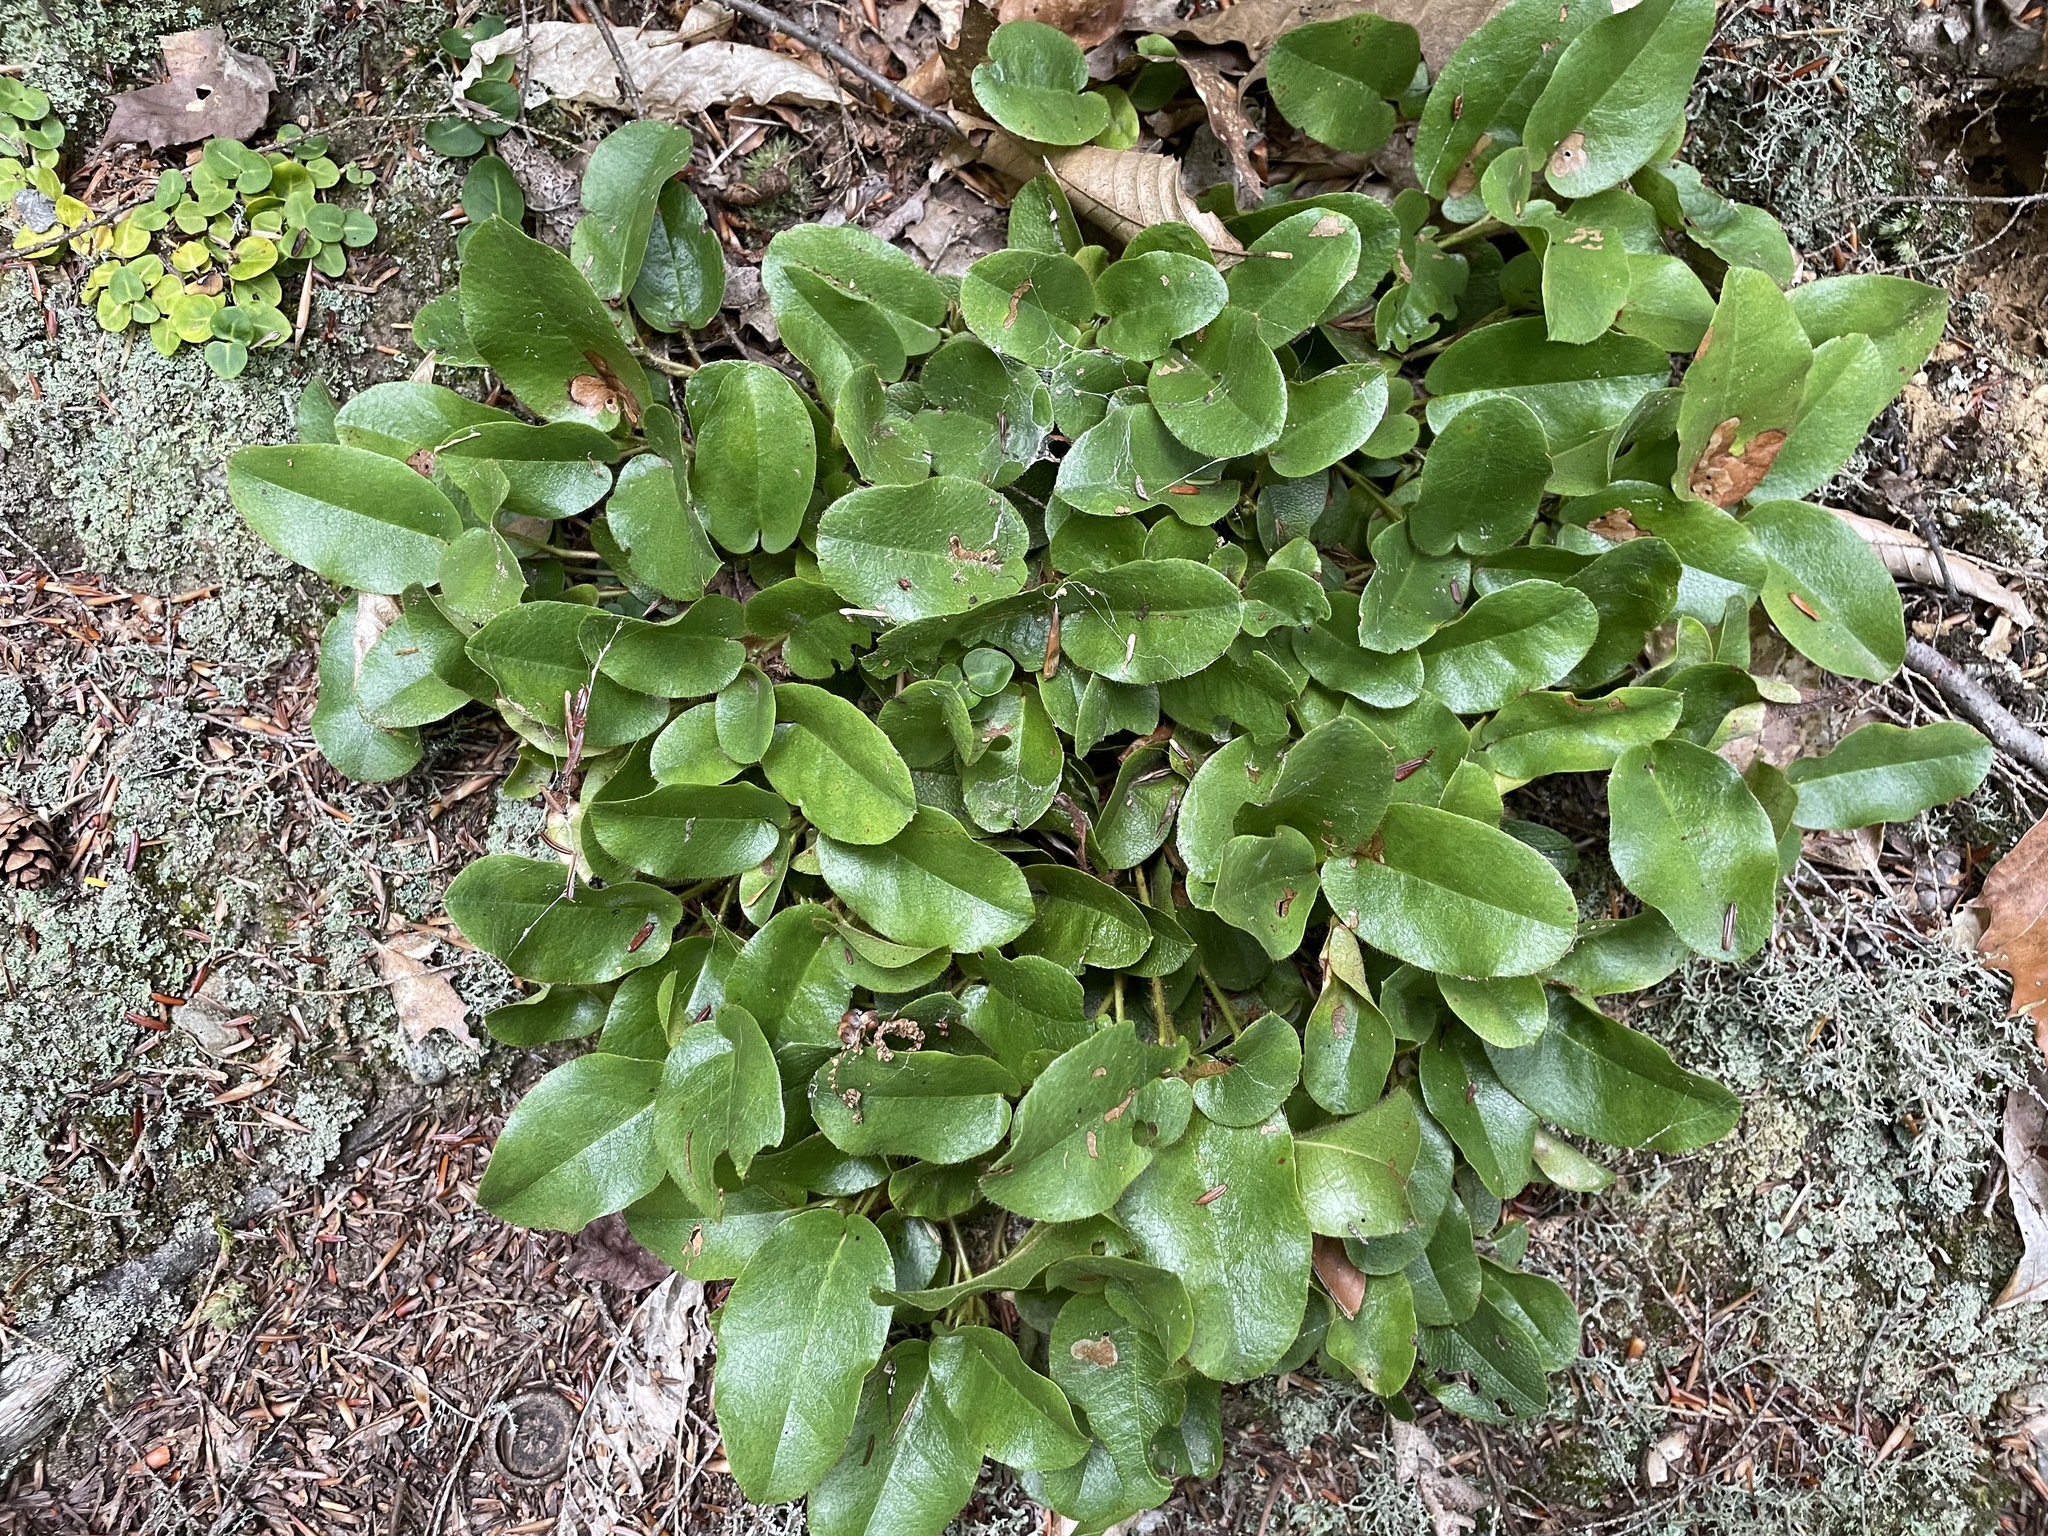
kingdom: Plantae
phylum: Tracheophyta
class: Magnoliopsida
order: Ericales
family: Ericaceae
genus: Epigaea
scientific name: Epigaea repens
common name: Gravelroot
